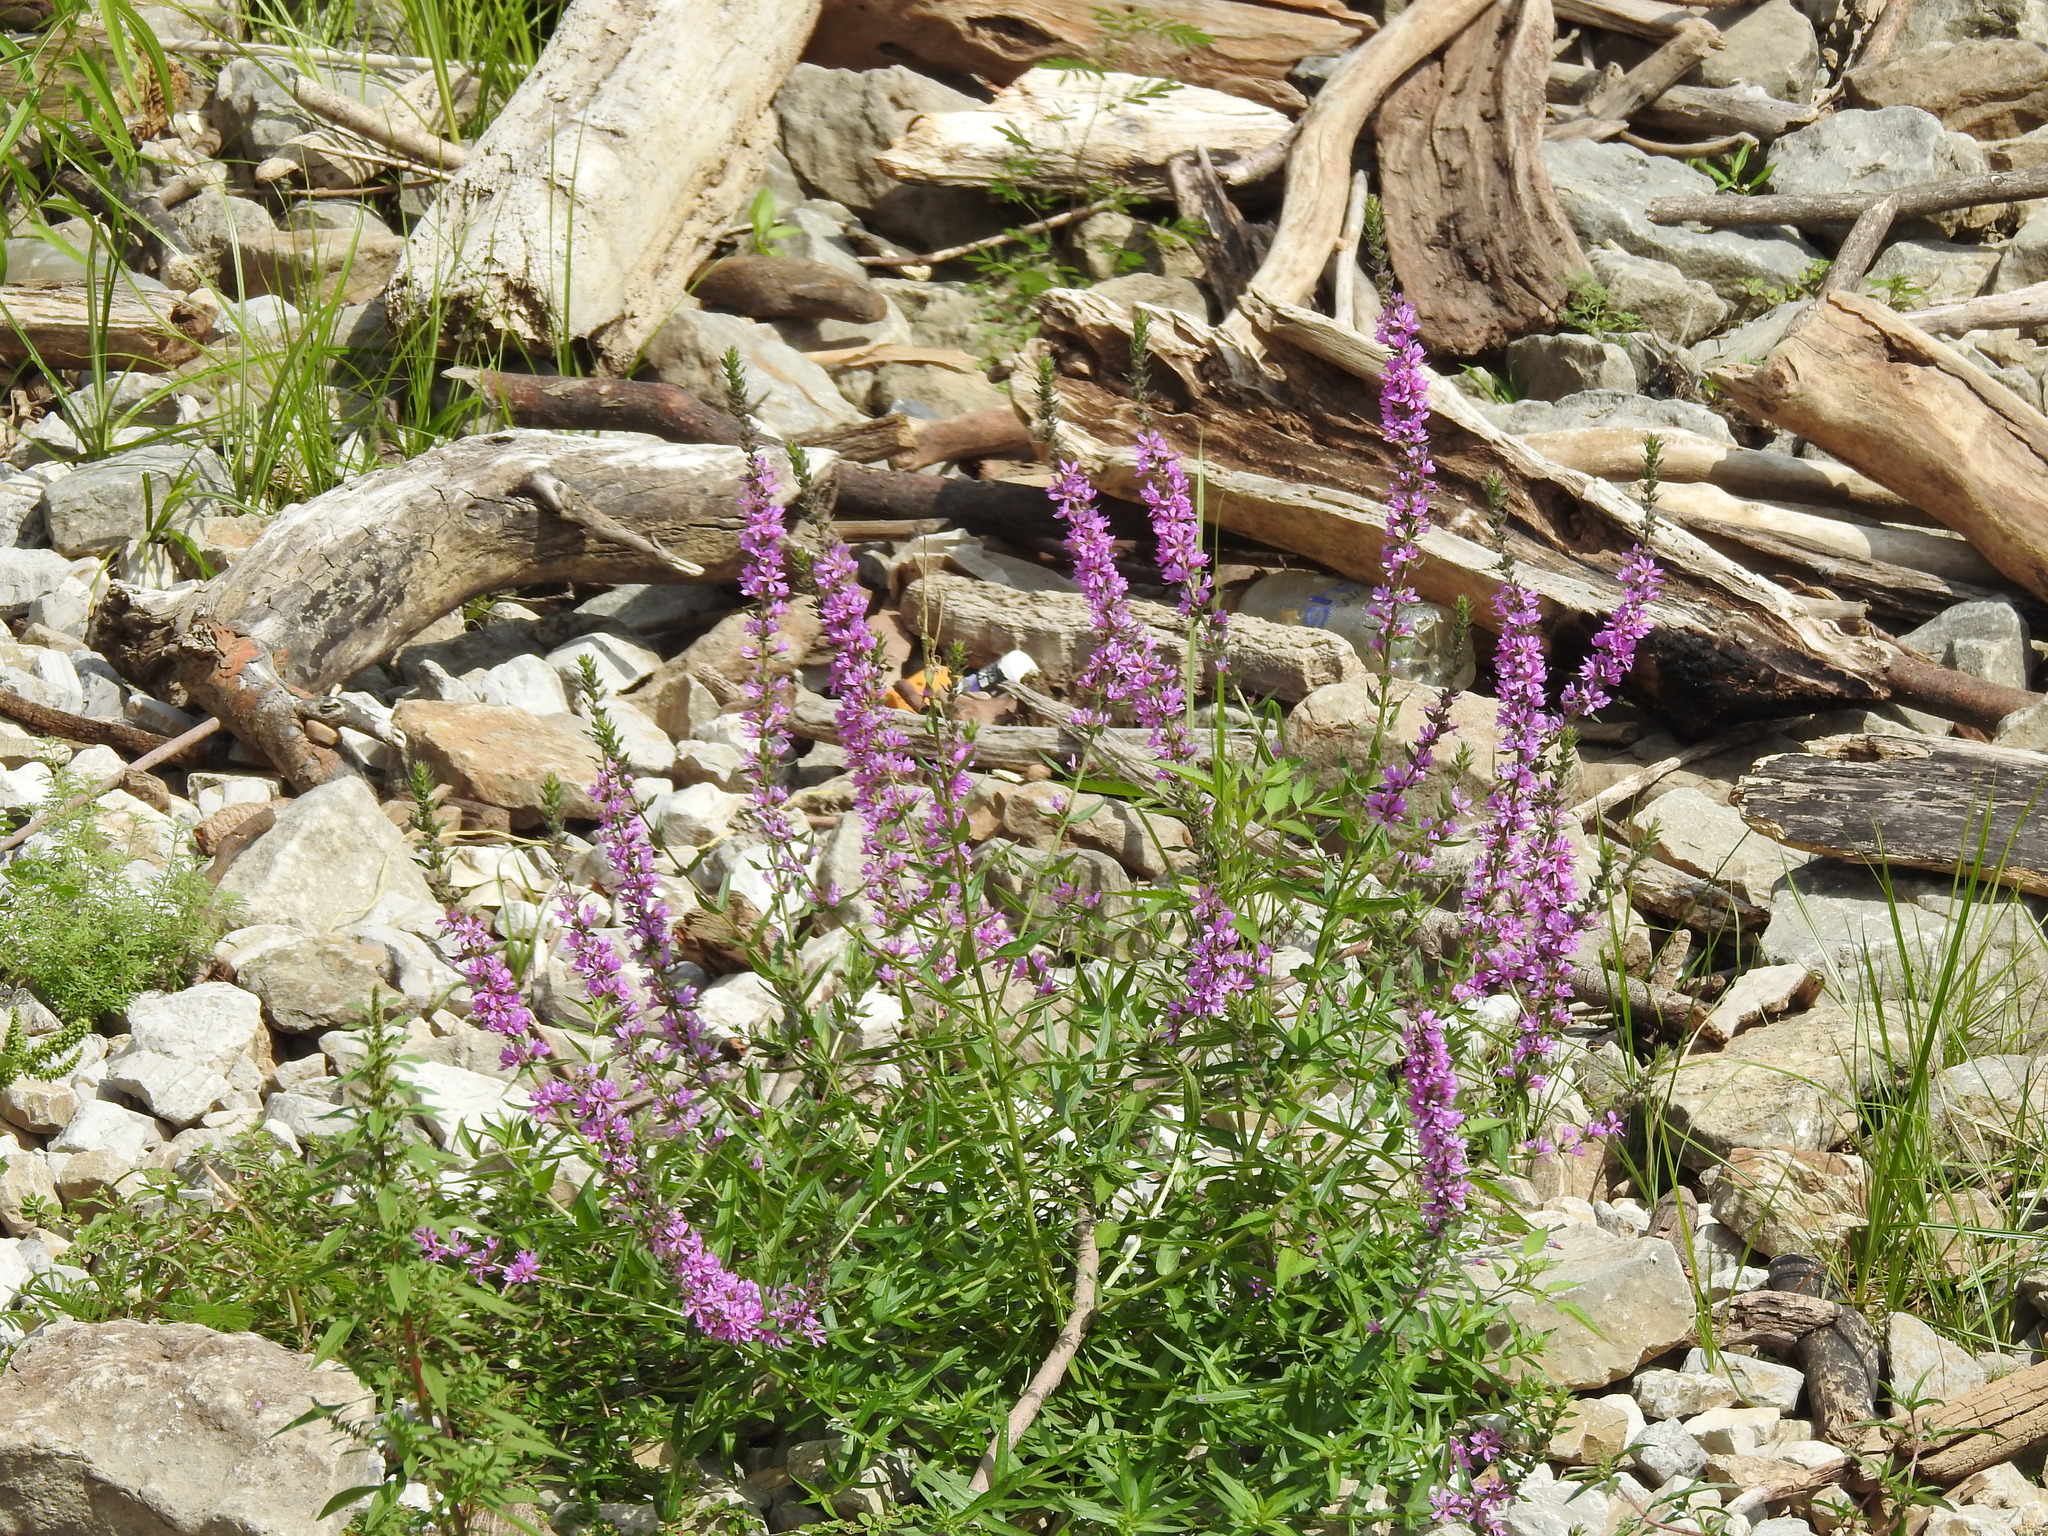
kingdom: Plantae
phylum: Tracheophyta
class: Magnoliopsida
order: Myrtales
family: Lythraceae
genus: Lythrum
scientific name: Lythrum salicaria
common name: Purple loosestrife
